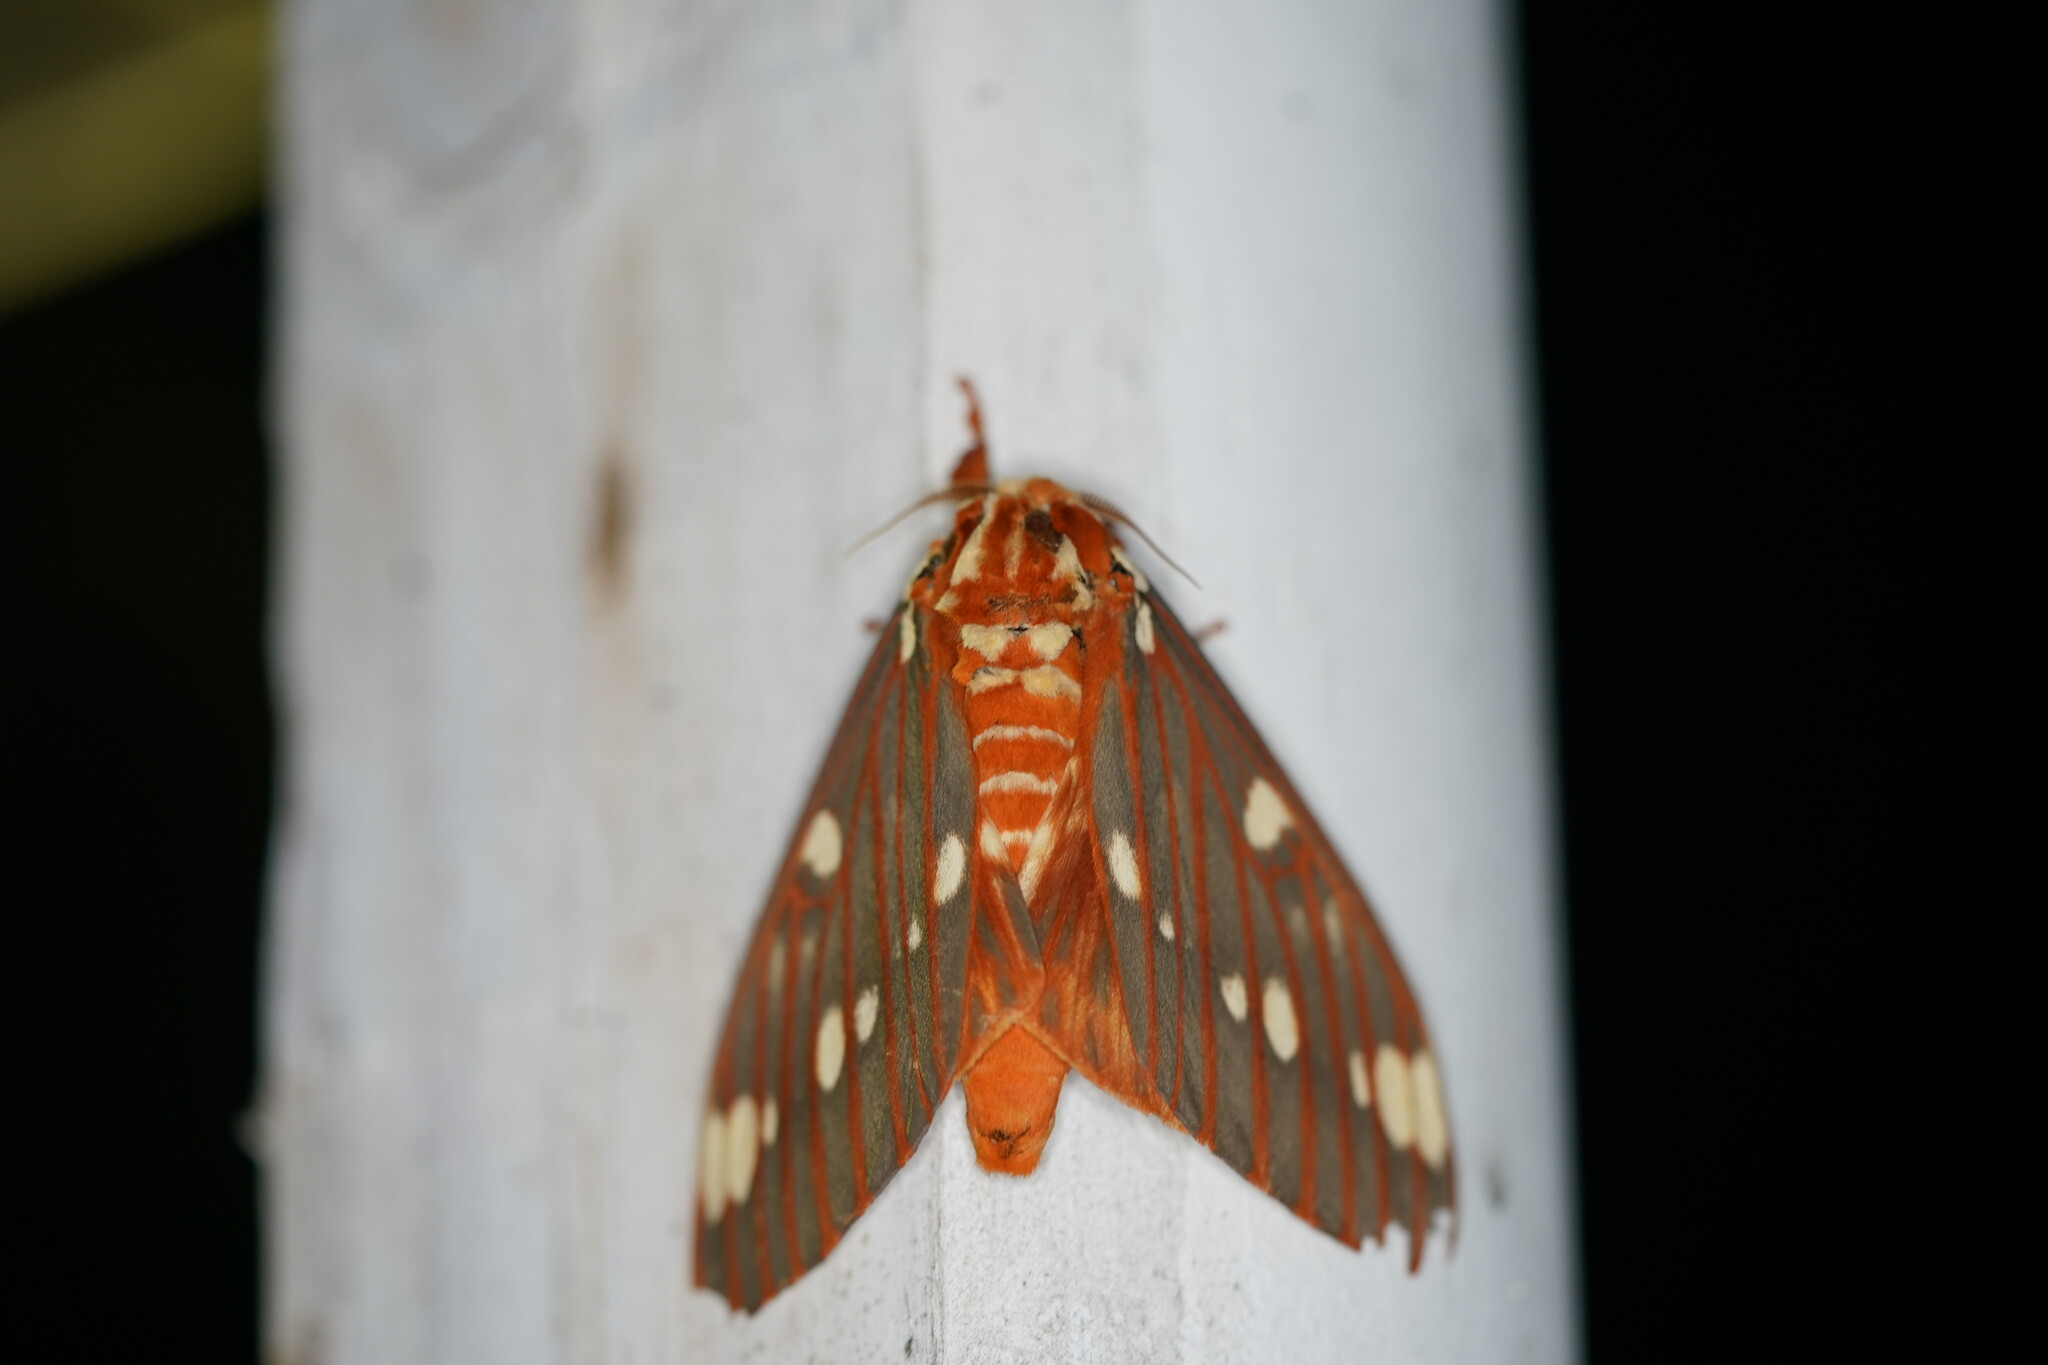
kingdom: Animalia
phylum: Arthropoda
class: Insecta
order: Lepidoptera
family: Saturniidae
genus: Citheronia
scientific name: Citheronia regalis
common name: Hickory horned devil
